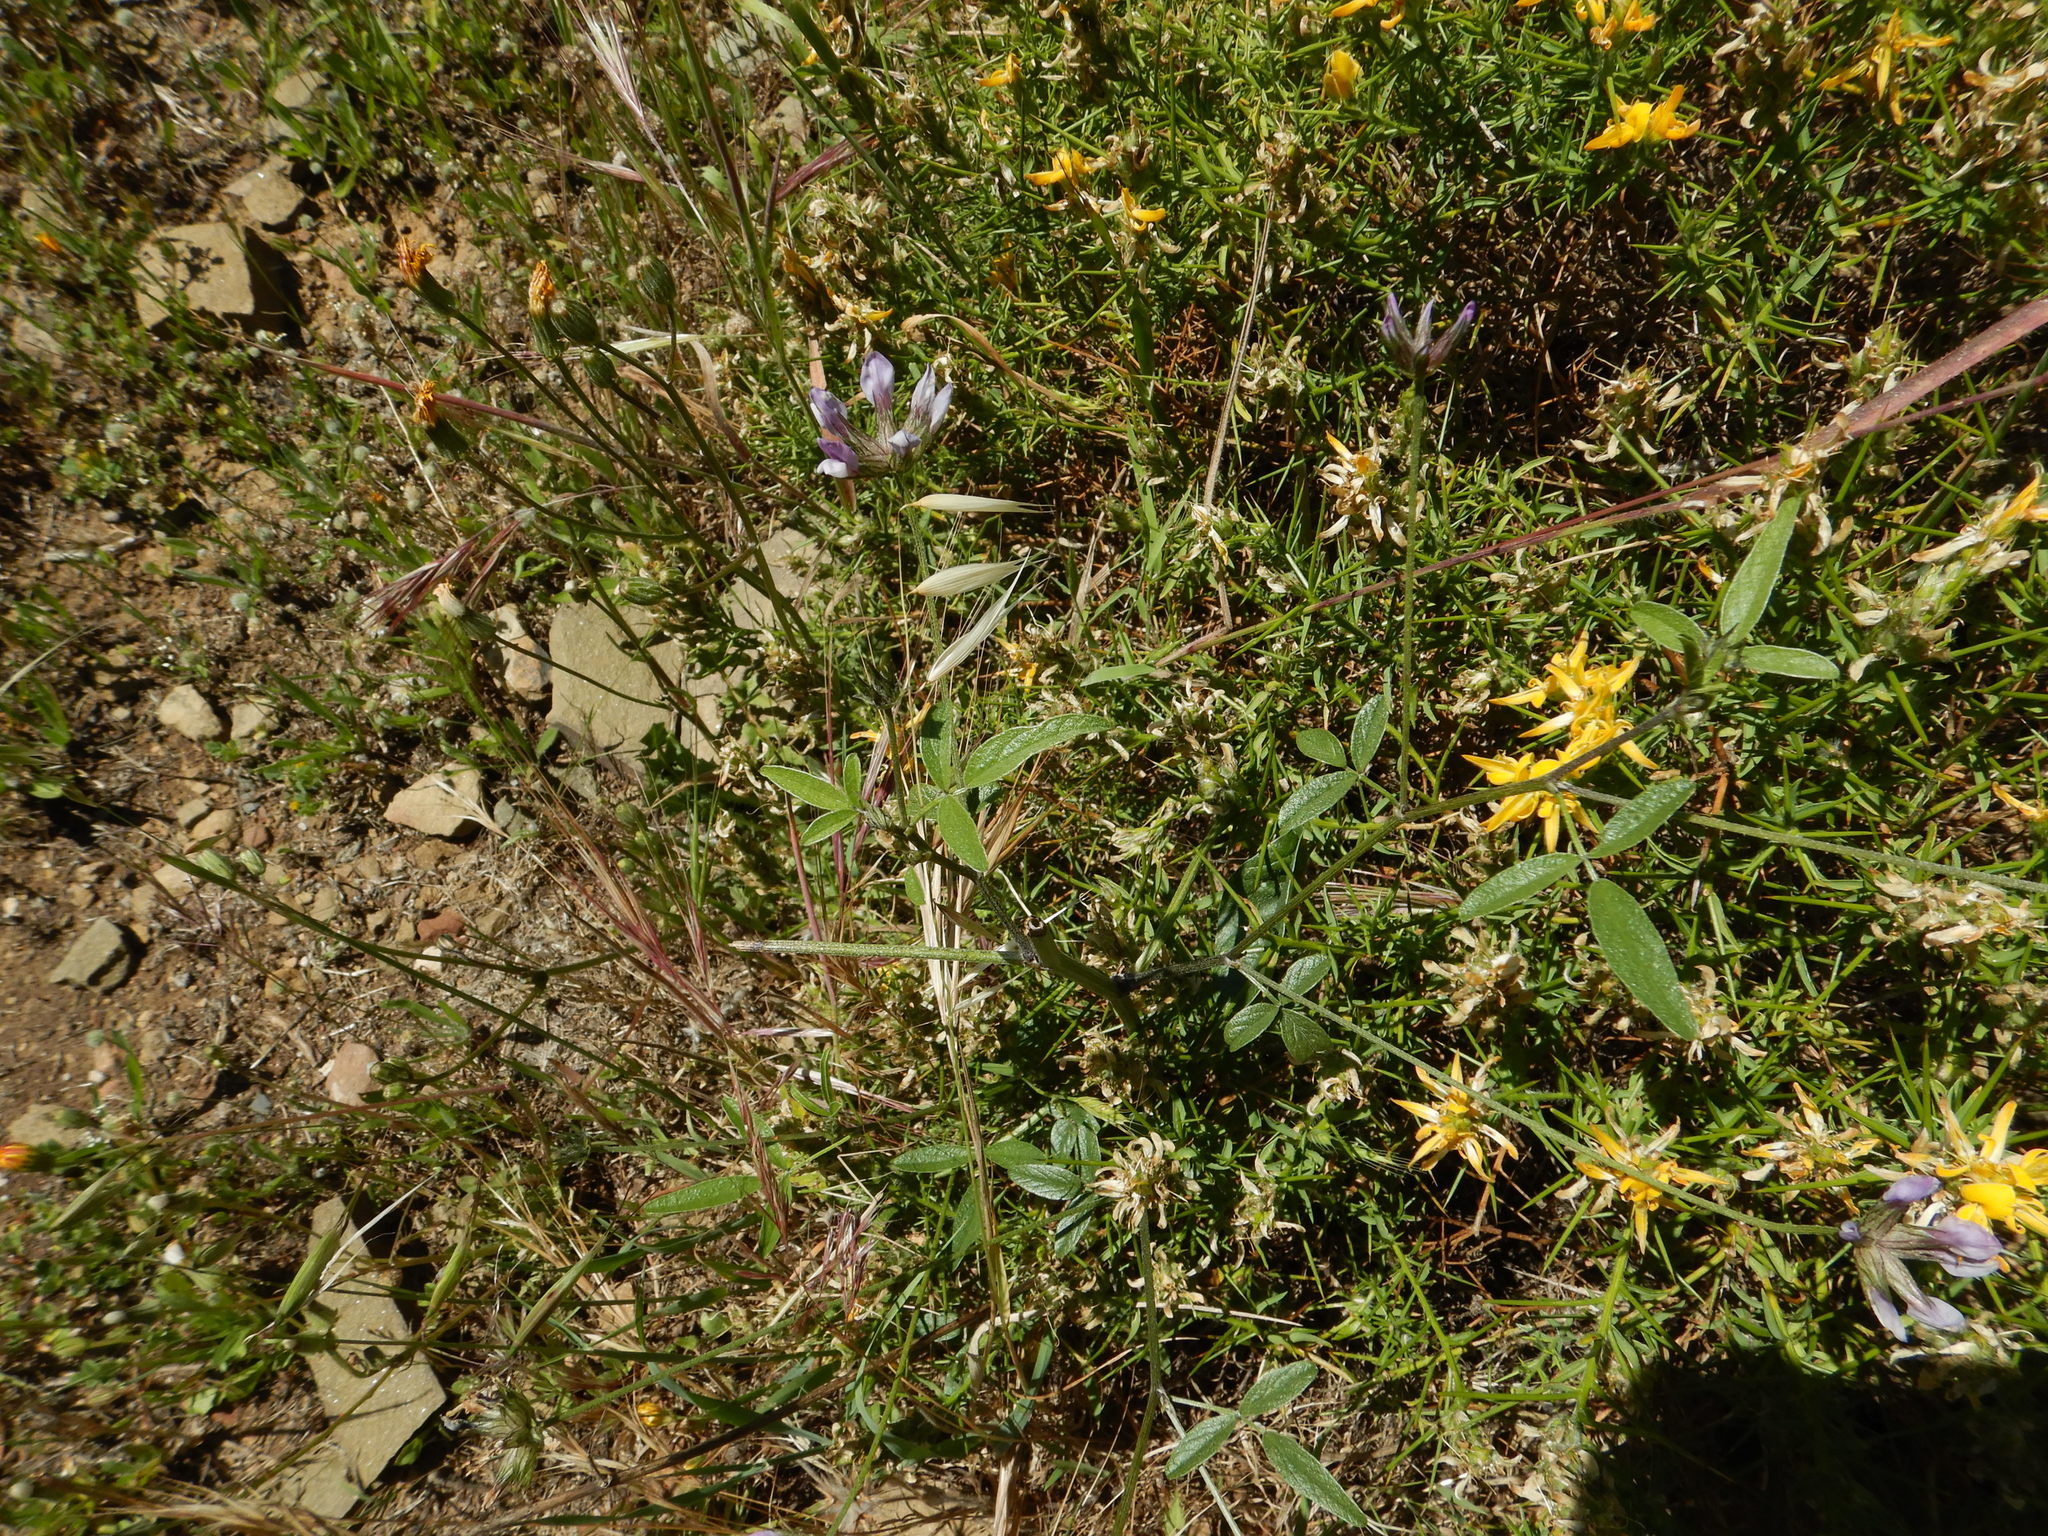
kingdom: Plantae
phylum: Tracheophyta
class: Magnoliopsida
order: Fabales
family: Fabaceae
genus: Bituminaria
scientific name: Bituminaria bituminosa
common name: Arabian pea
